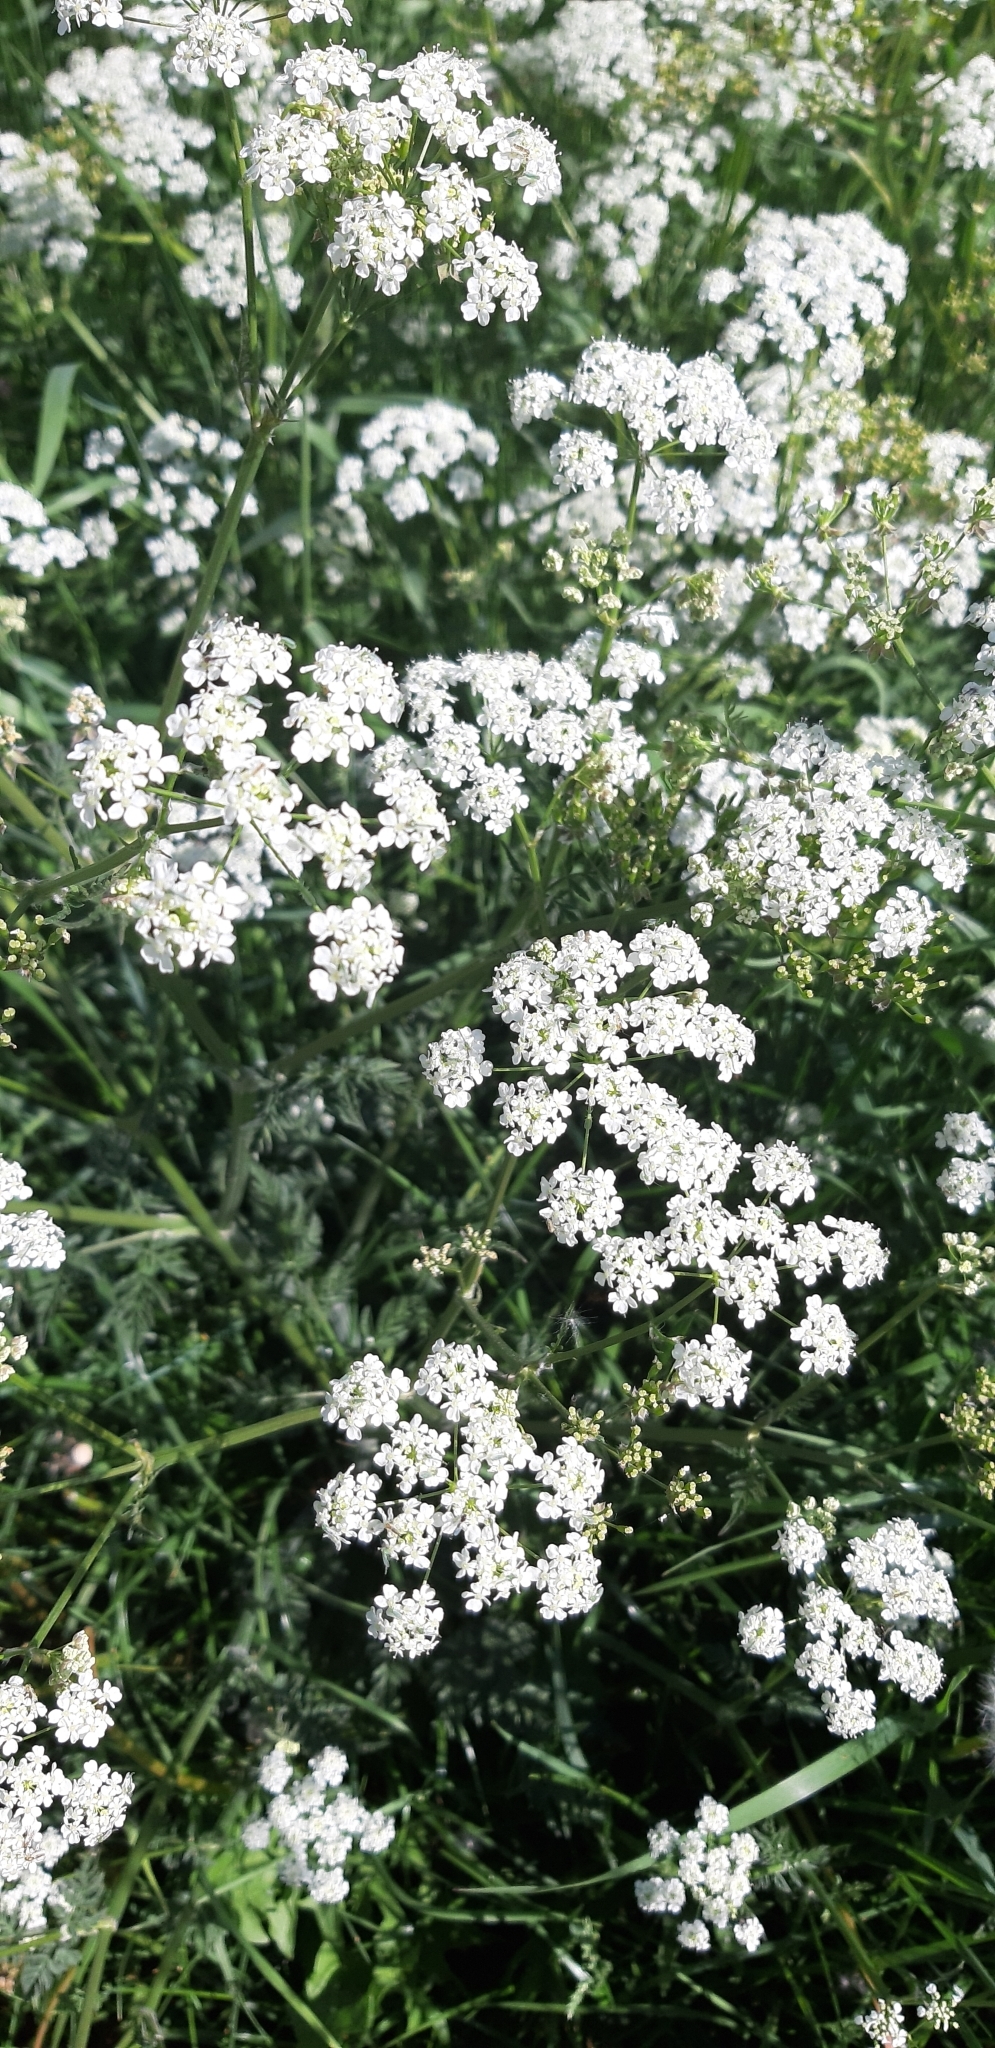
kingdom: Plantae
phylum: Tracheophyta
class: Magnoliopsida
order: Apiales
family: Apiaceae
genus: Anthriscus
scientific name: Anthriscus sylvestris
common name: Cow parsley
